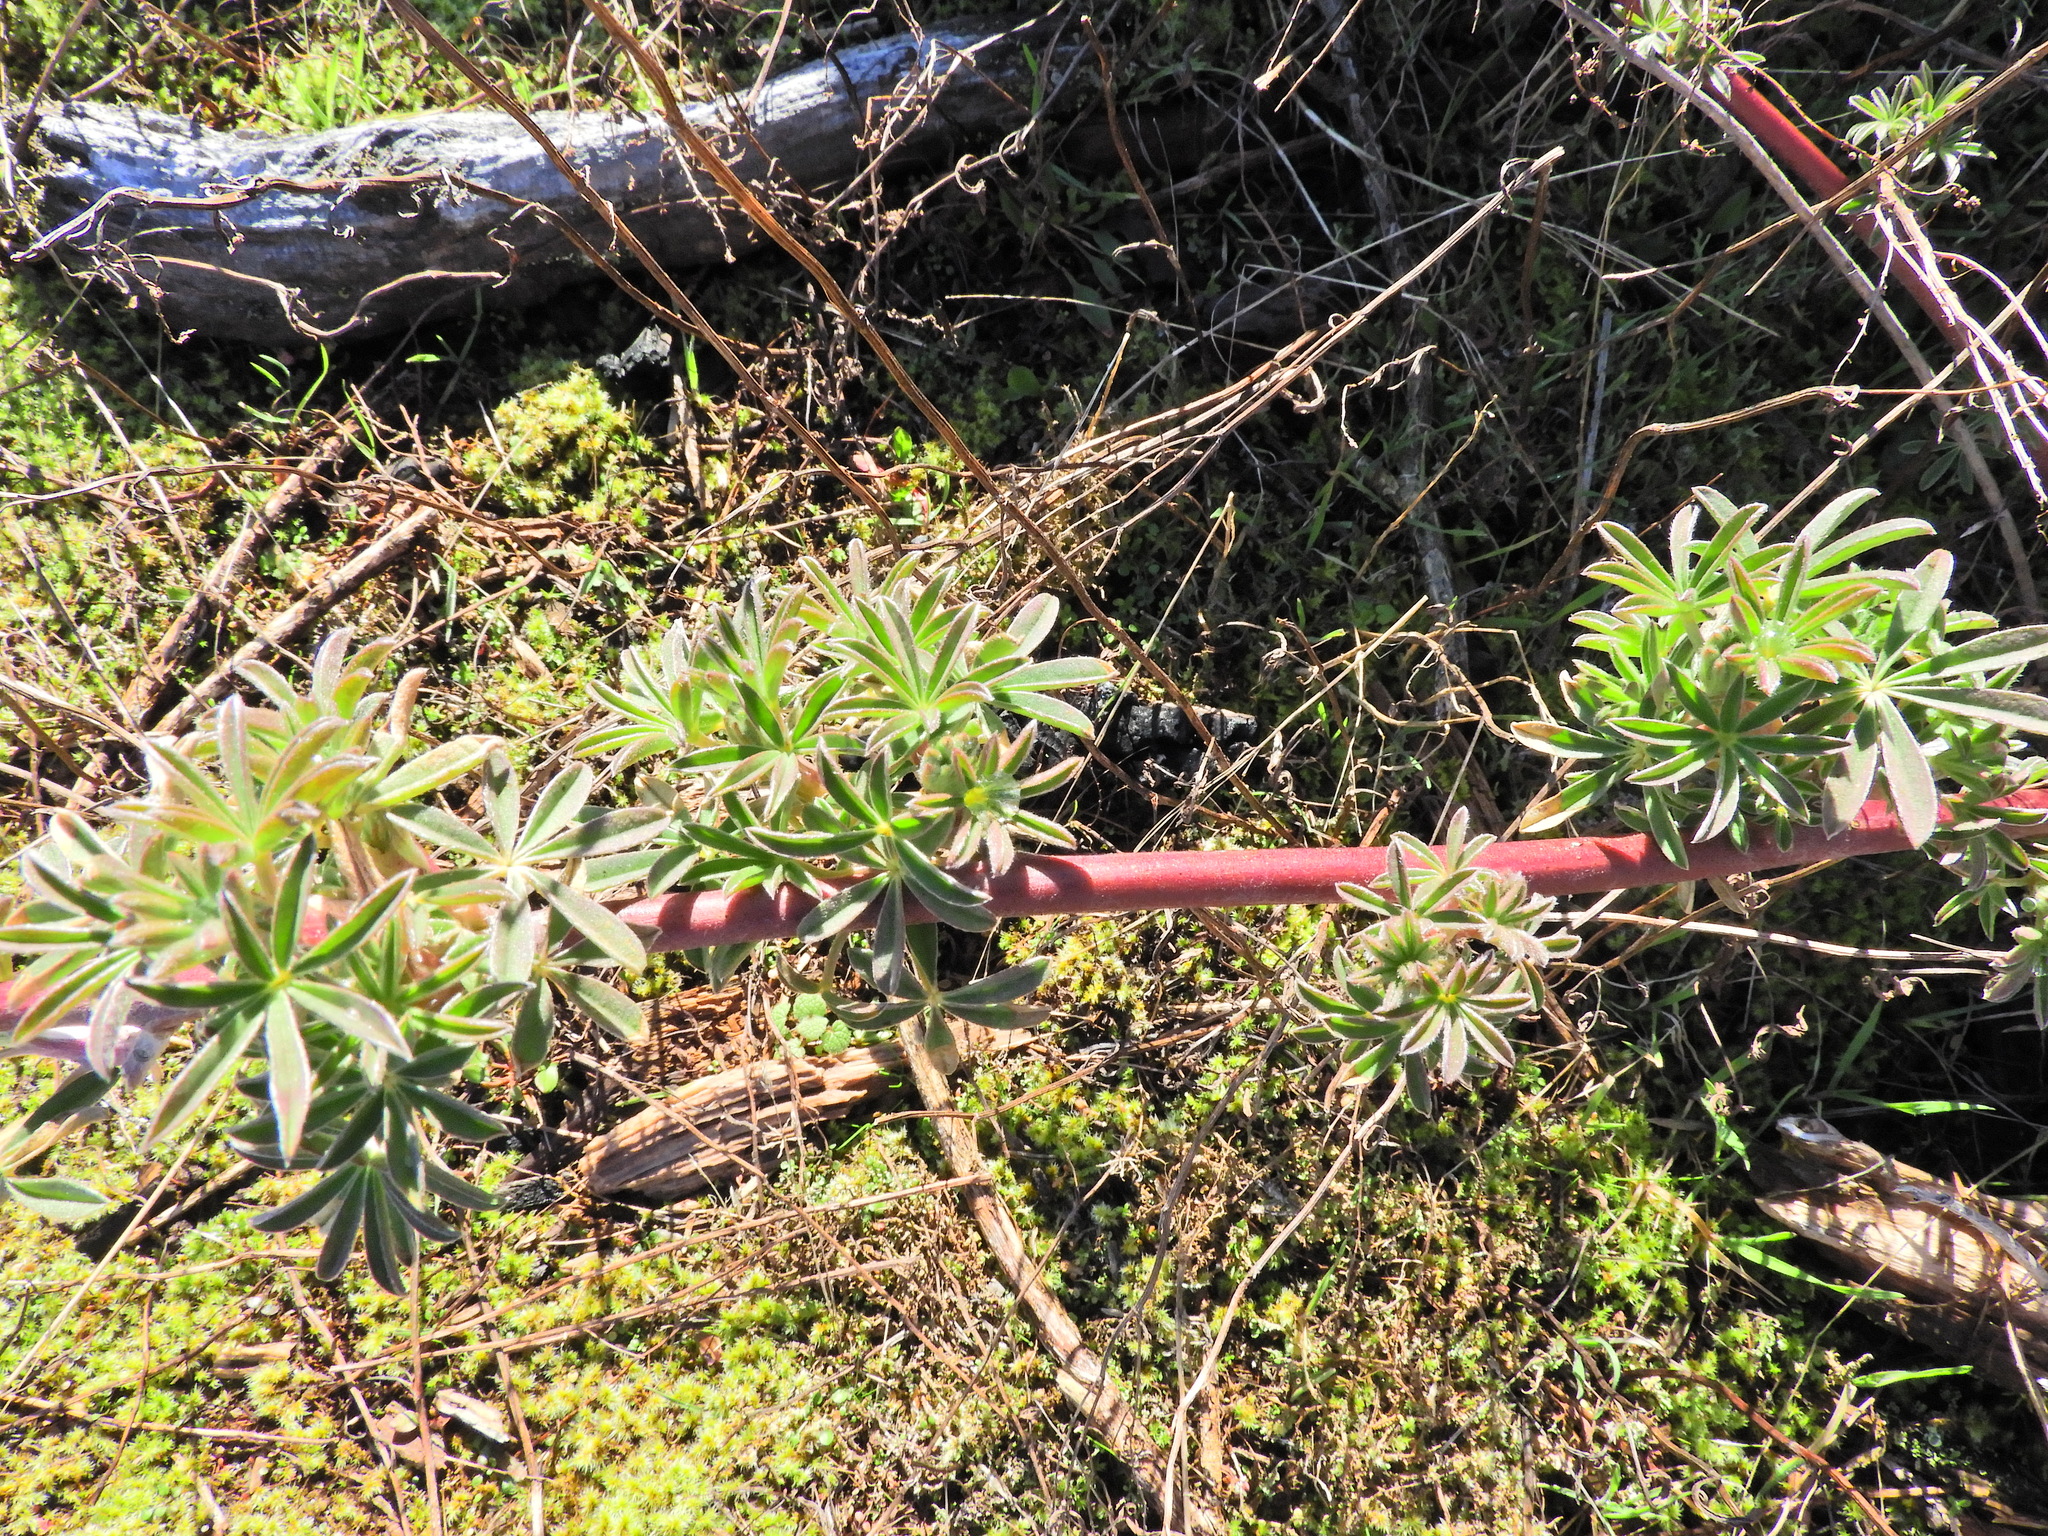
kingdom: Plantae
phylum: Tracheophyta
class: Magnoliopsida
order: Fabales
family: Fabaceae
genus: Lupinus
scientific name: Lupinus arboreus
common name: Yellow bush lupine
